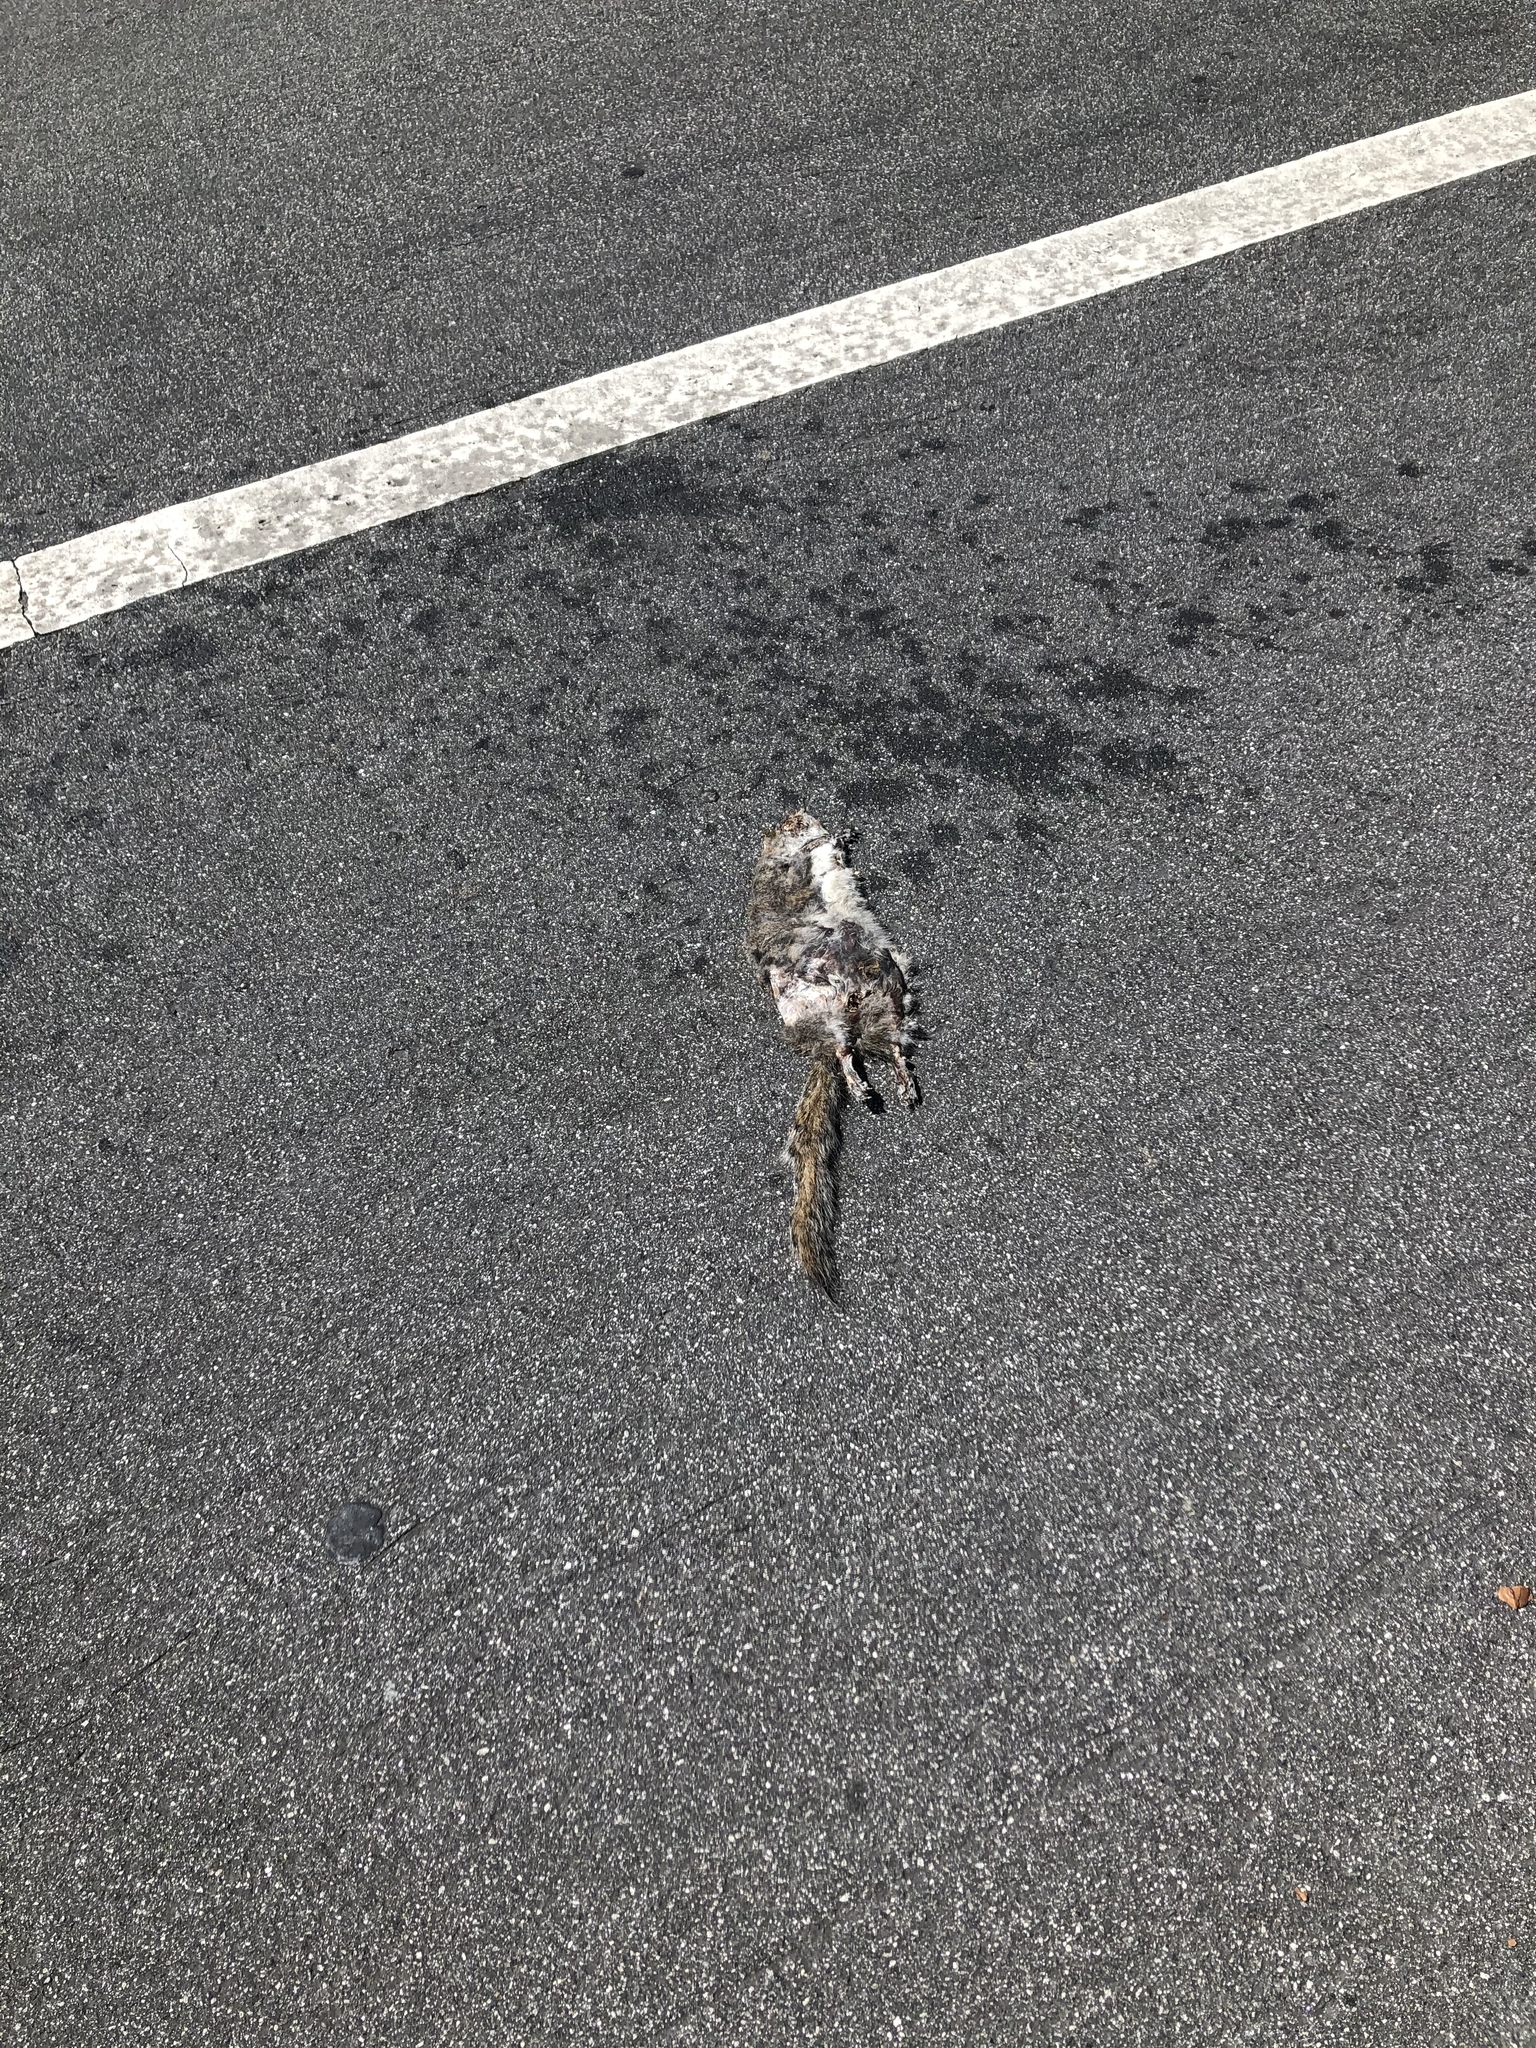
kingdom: Animalia
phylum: Chordata
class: Mammalia
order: Rodentia
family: Sciuridae
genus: Sciurus
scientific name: Sciurus carolinensis
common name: Eastern gray squirrel
